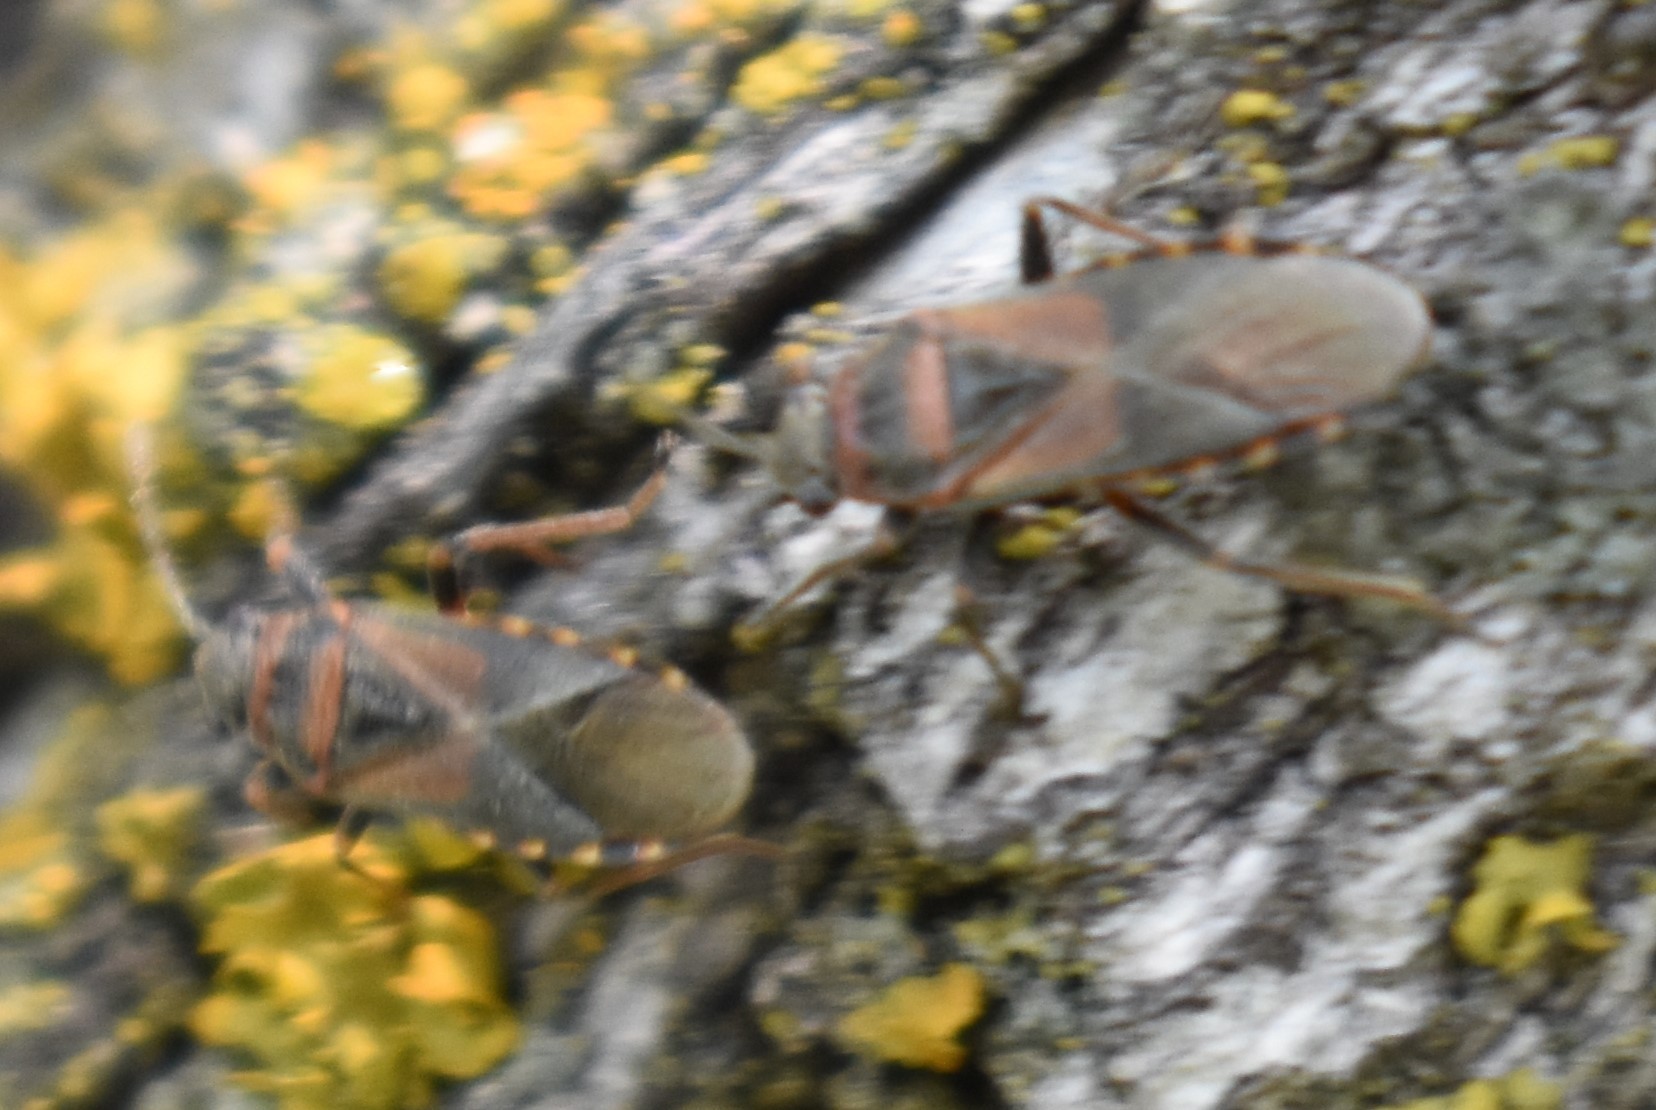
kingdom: Animalia
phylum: Arthropoda
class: Insecta
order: Hemiptera
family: Lygaeidae
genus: Arocatus
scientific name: Arocatus melanocephalus
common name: Lygaeid bug
